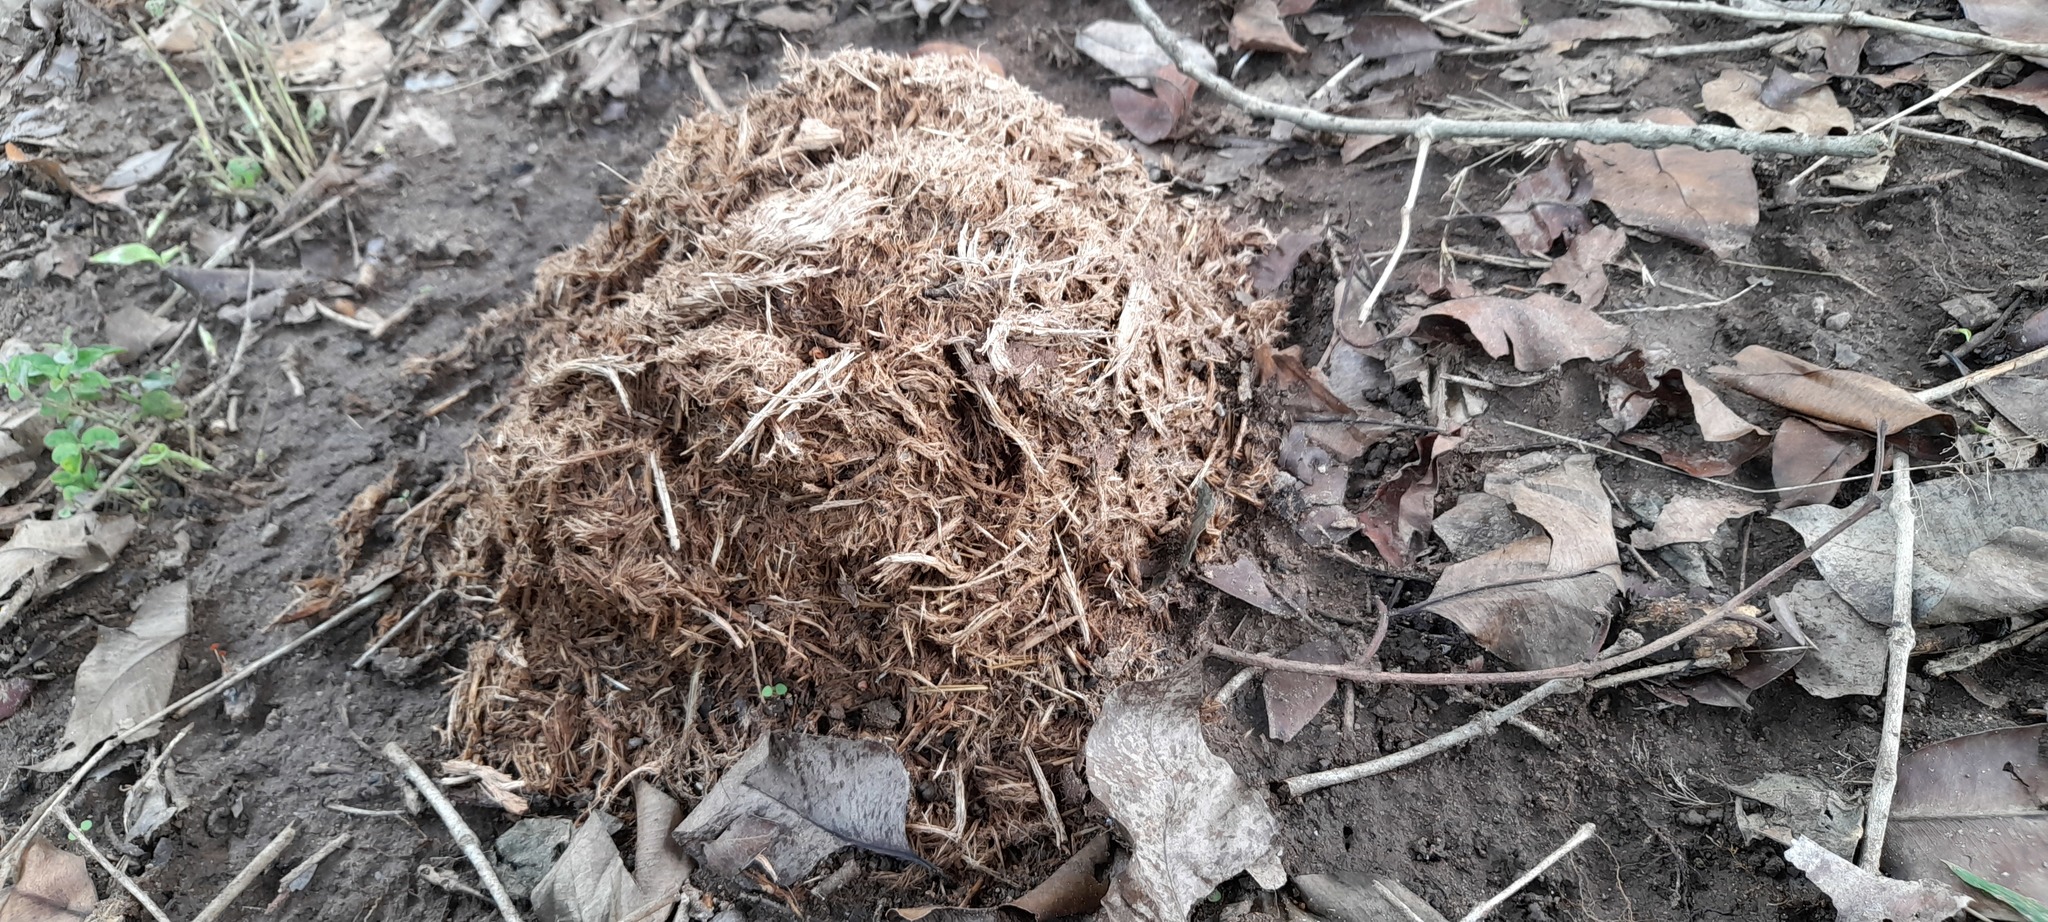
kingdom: Animalia
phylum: Chordata
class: Mammalia
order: Proboscidea
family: Elephantidae
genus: Elephas
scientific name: Elephas maximus
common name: Asian elephant
